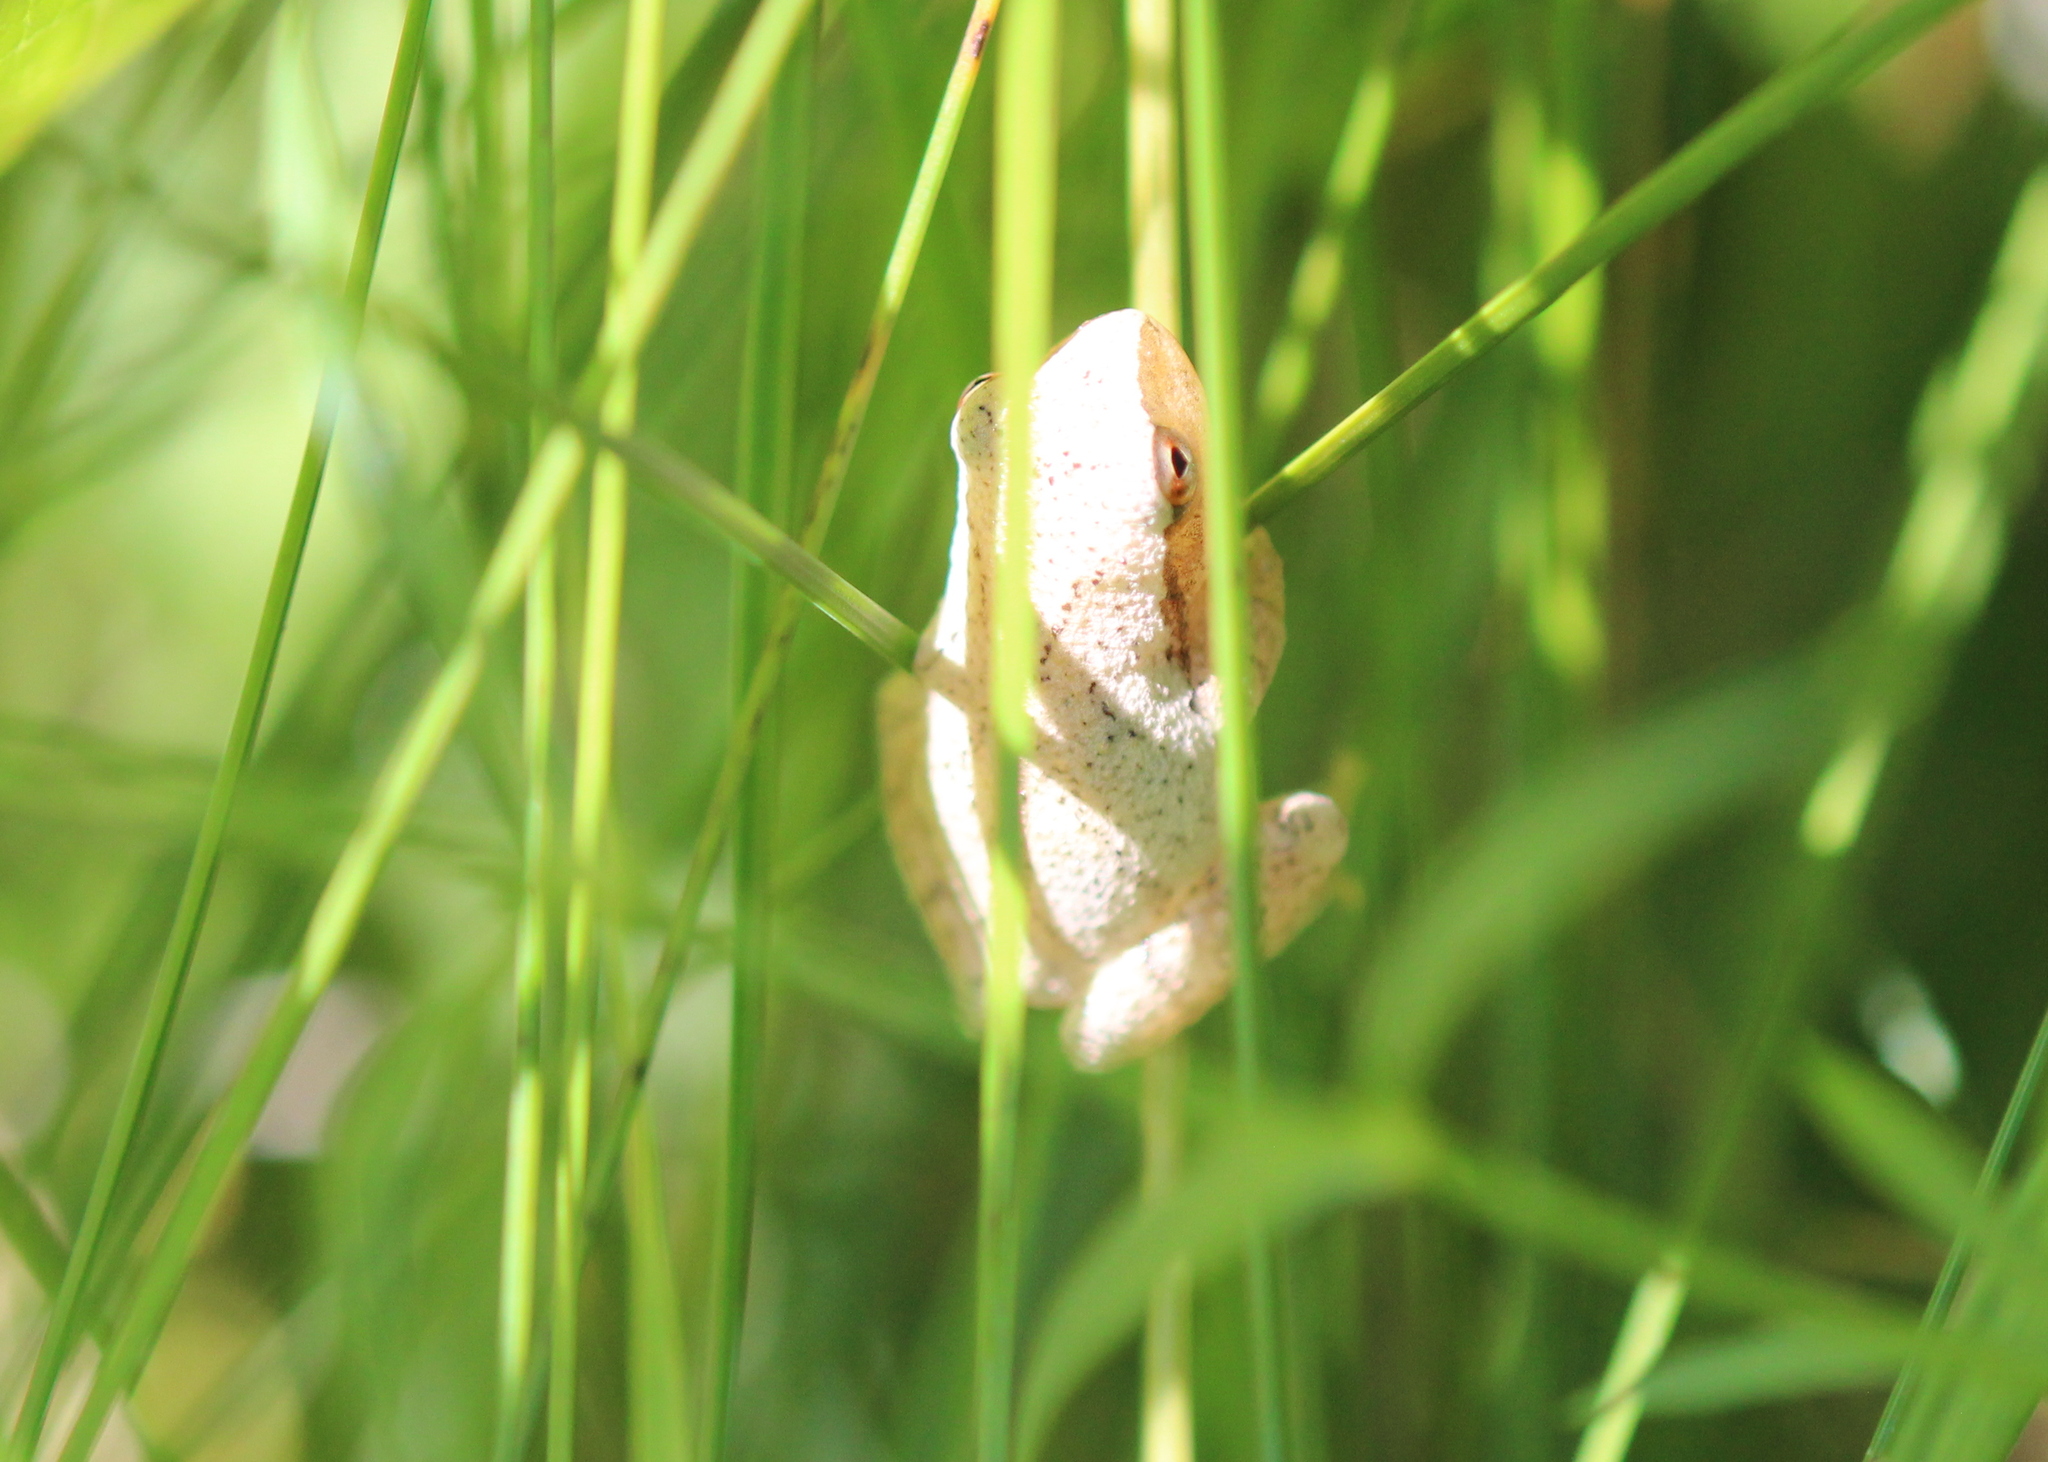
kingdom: Animalia
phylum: Chordata
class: Amphibia
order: Anura
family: Hylidae
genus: Pseudacris
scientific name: Pseudacris crucifer
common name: Spring peeper
